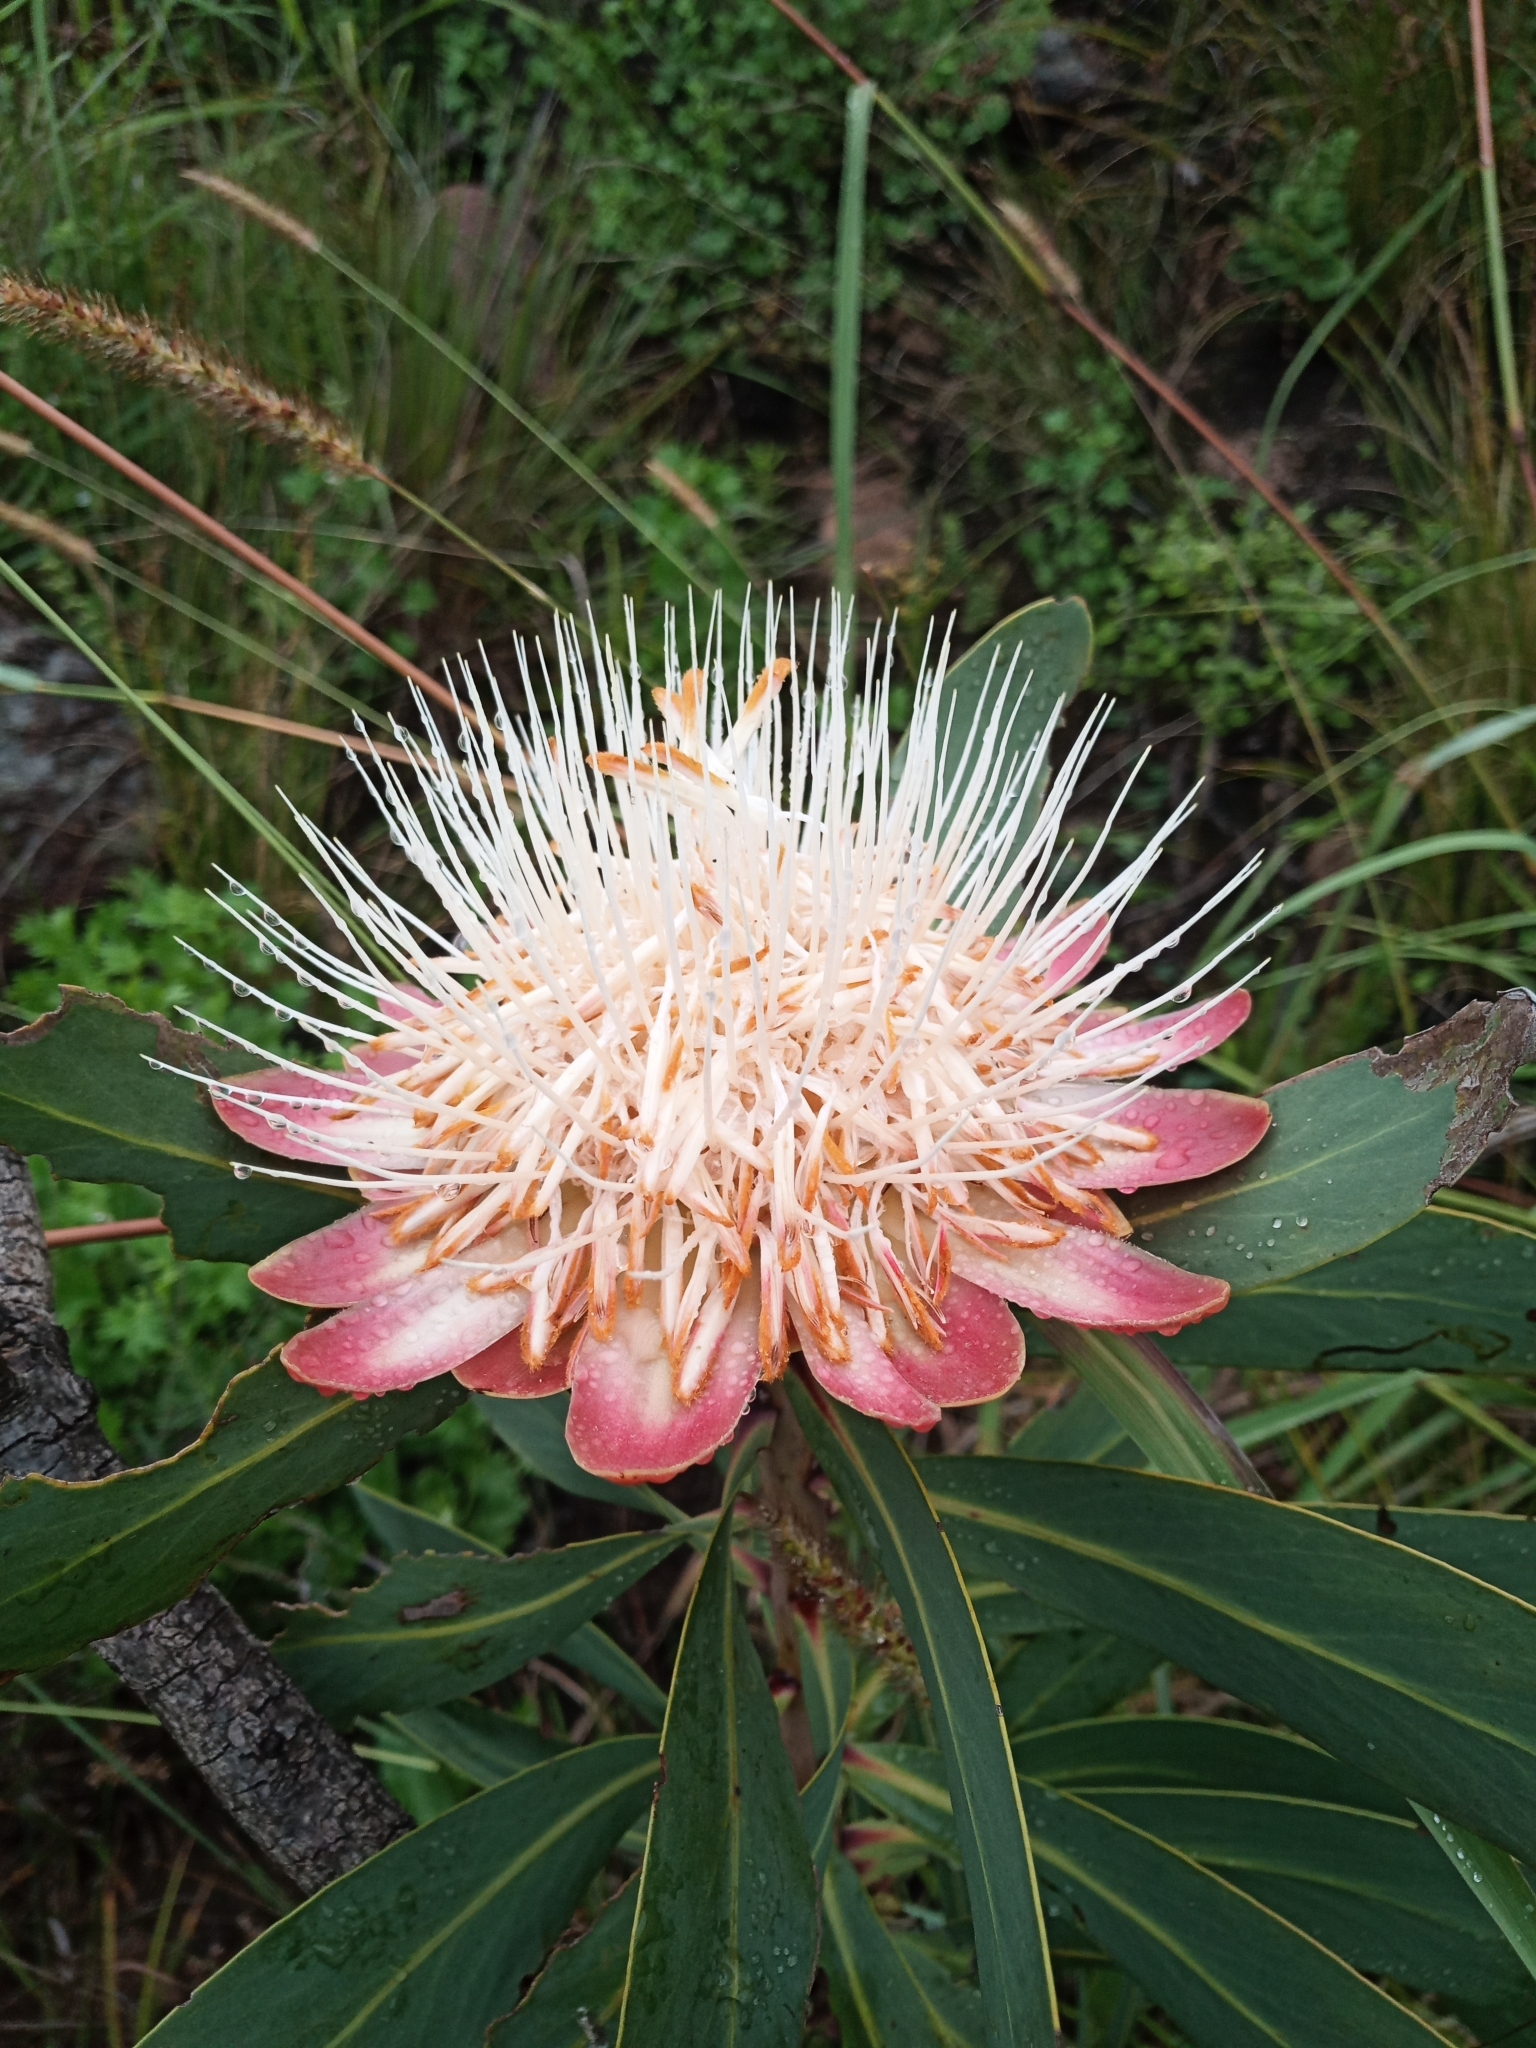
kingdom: Plantae
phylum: Tracheophyta
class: Magnoliopsida
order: Proteales
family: Proteaceae
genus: Protea
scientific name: Protea caffra
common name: Common sugarbush
